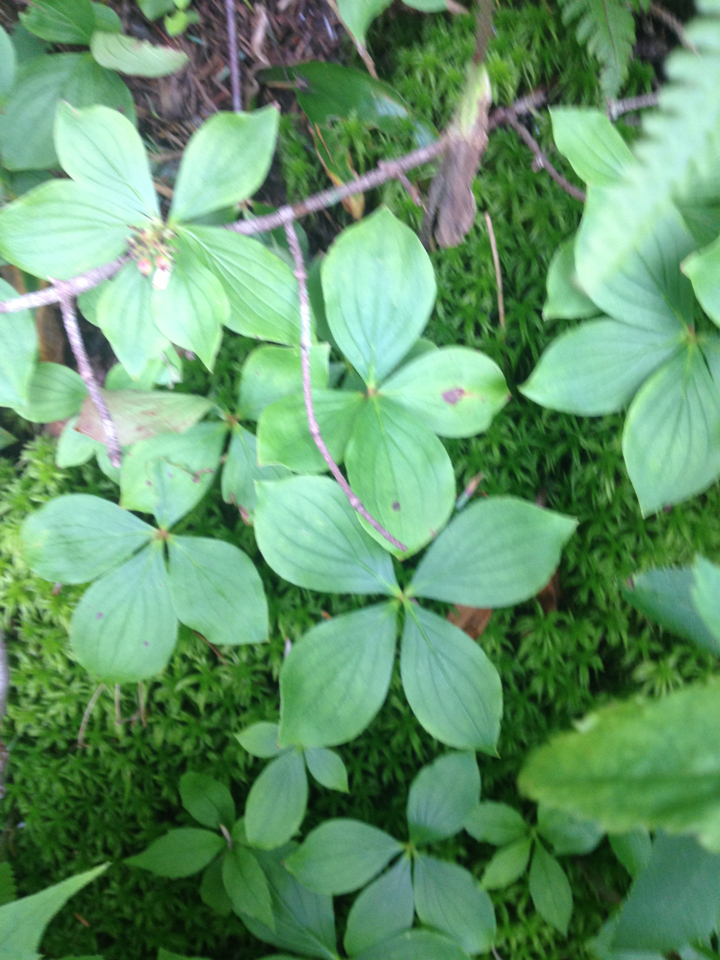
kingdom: Plantae
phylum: Tracheophyta
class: Magnoliopsida
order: Cornales
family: Cornaceae
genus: Cornus
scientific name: Cornus canadensis
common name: Creeping dogwood
